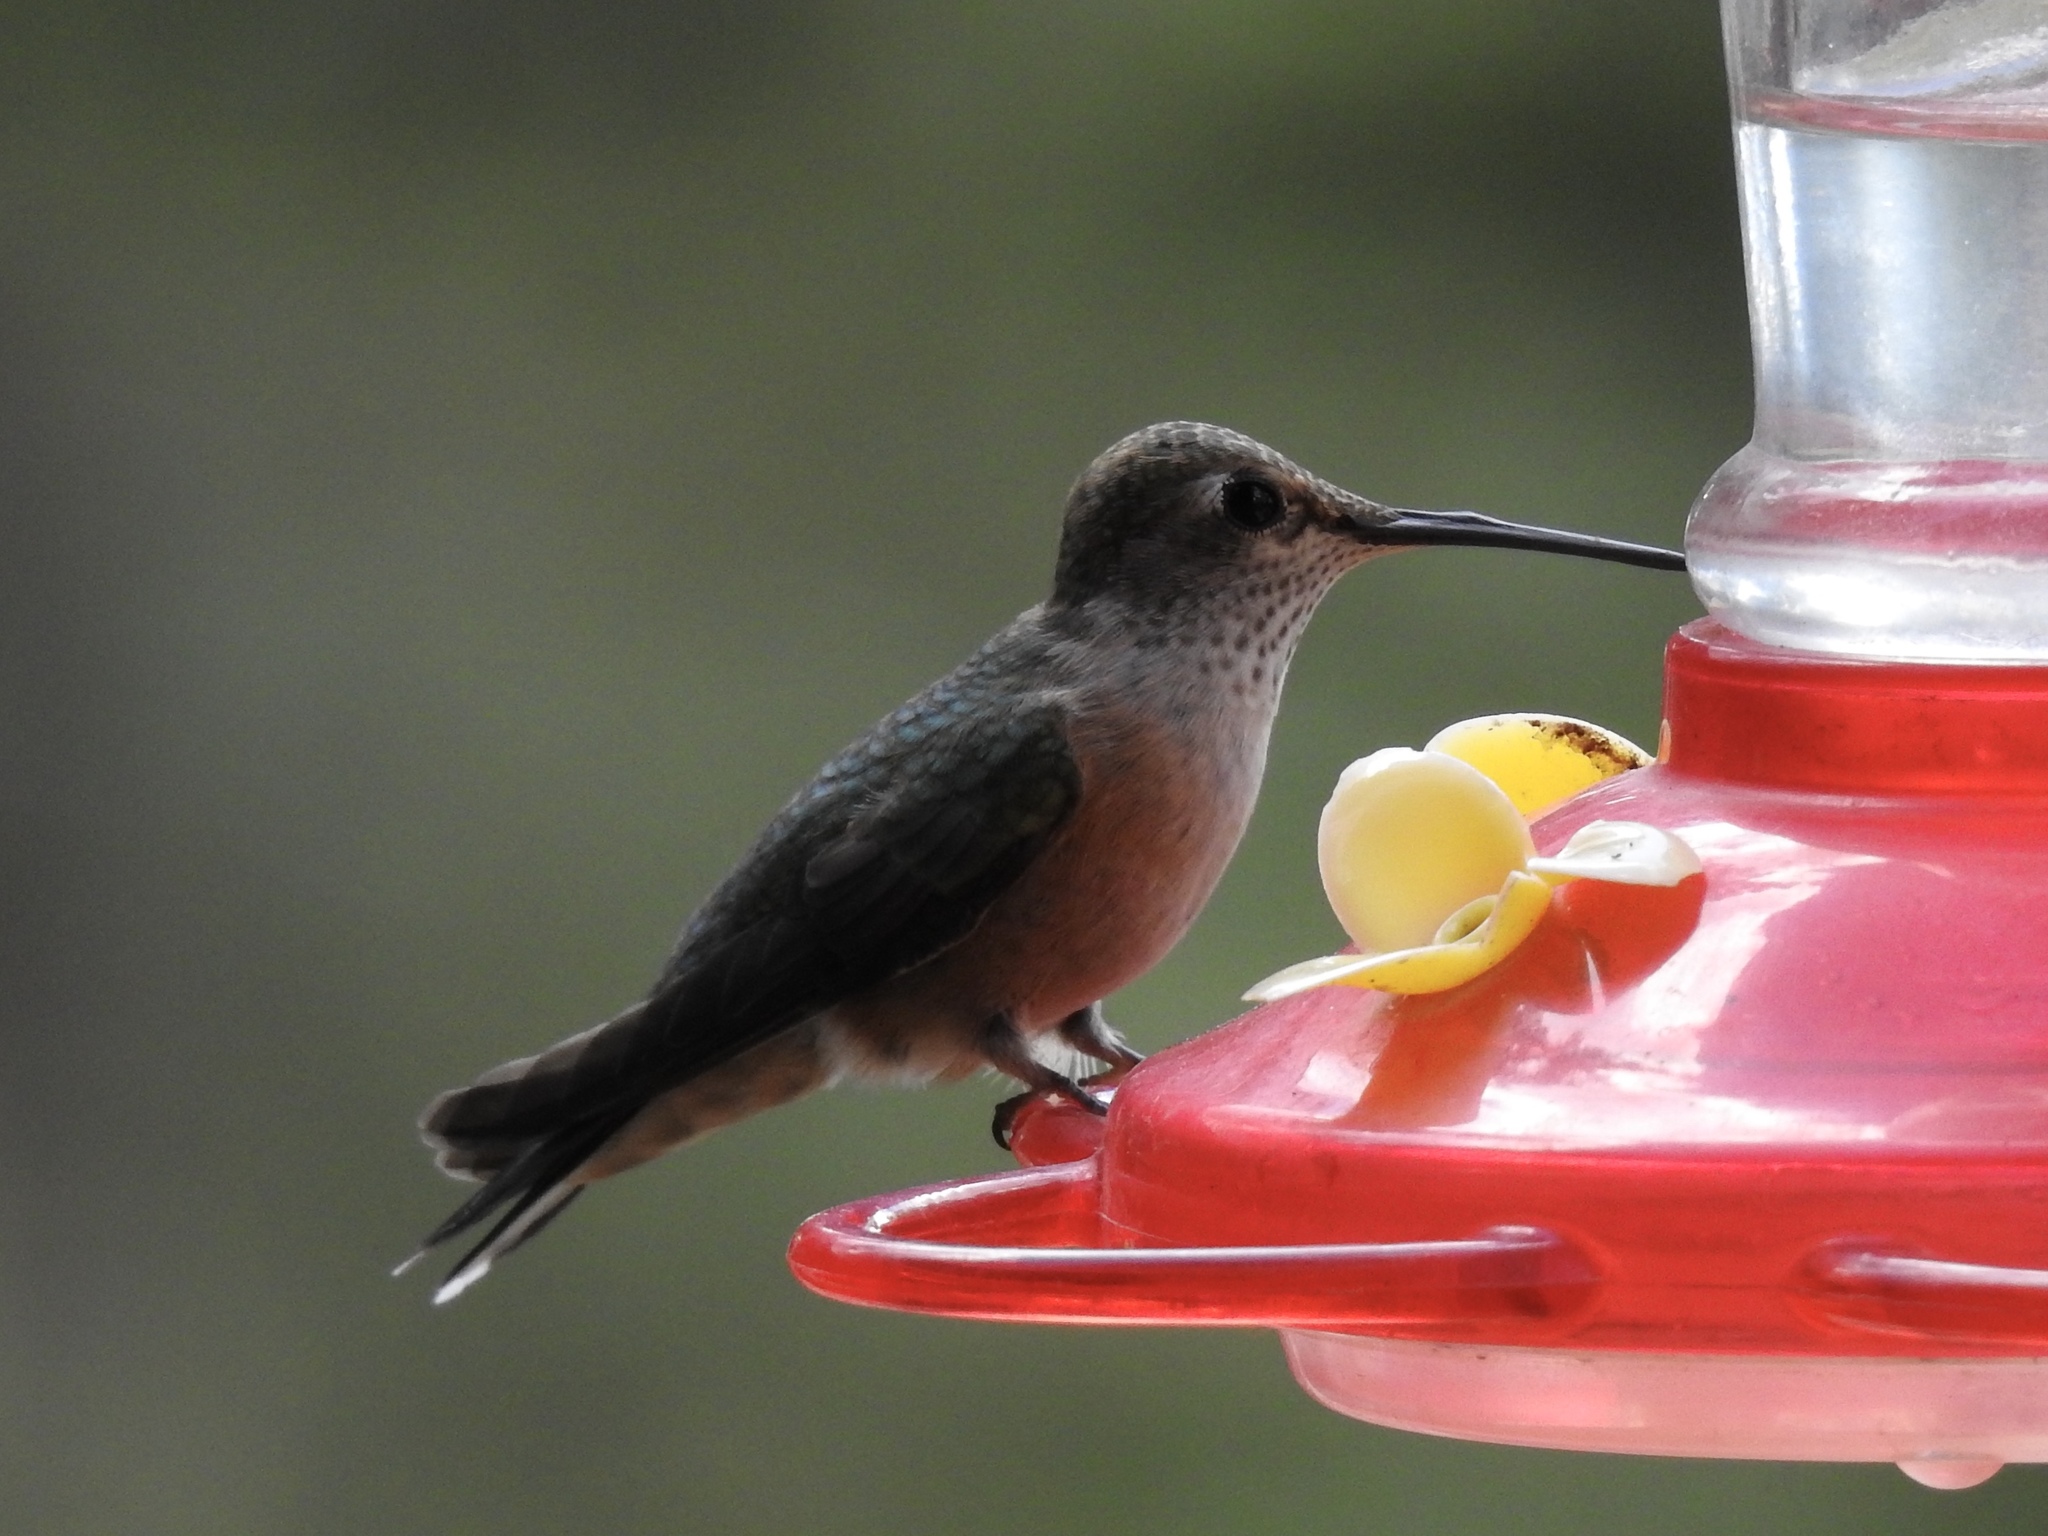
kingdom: Animalia
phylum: Chordata
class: Aves
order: Apodiformes
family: Trochilidae
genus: Selasphorus
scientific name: Selasphorus platycercus
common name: Broad-tailed hummingbird
